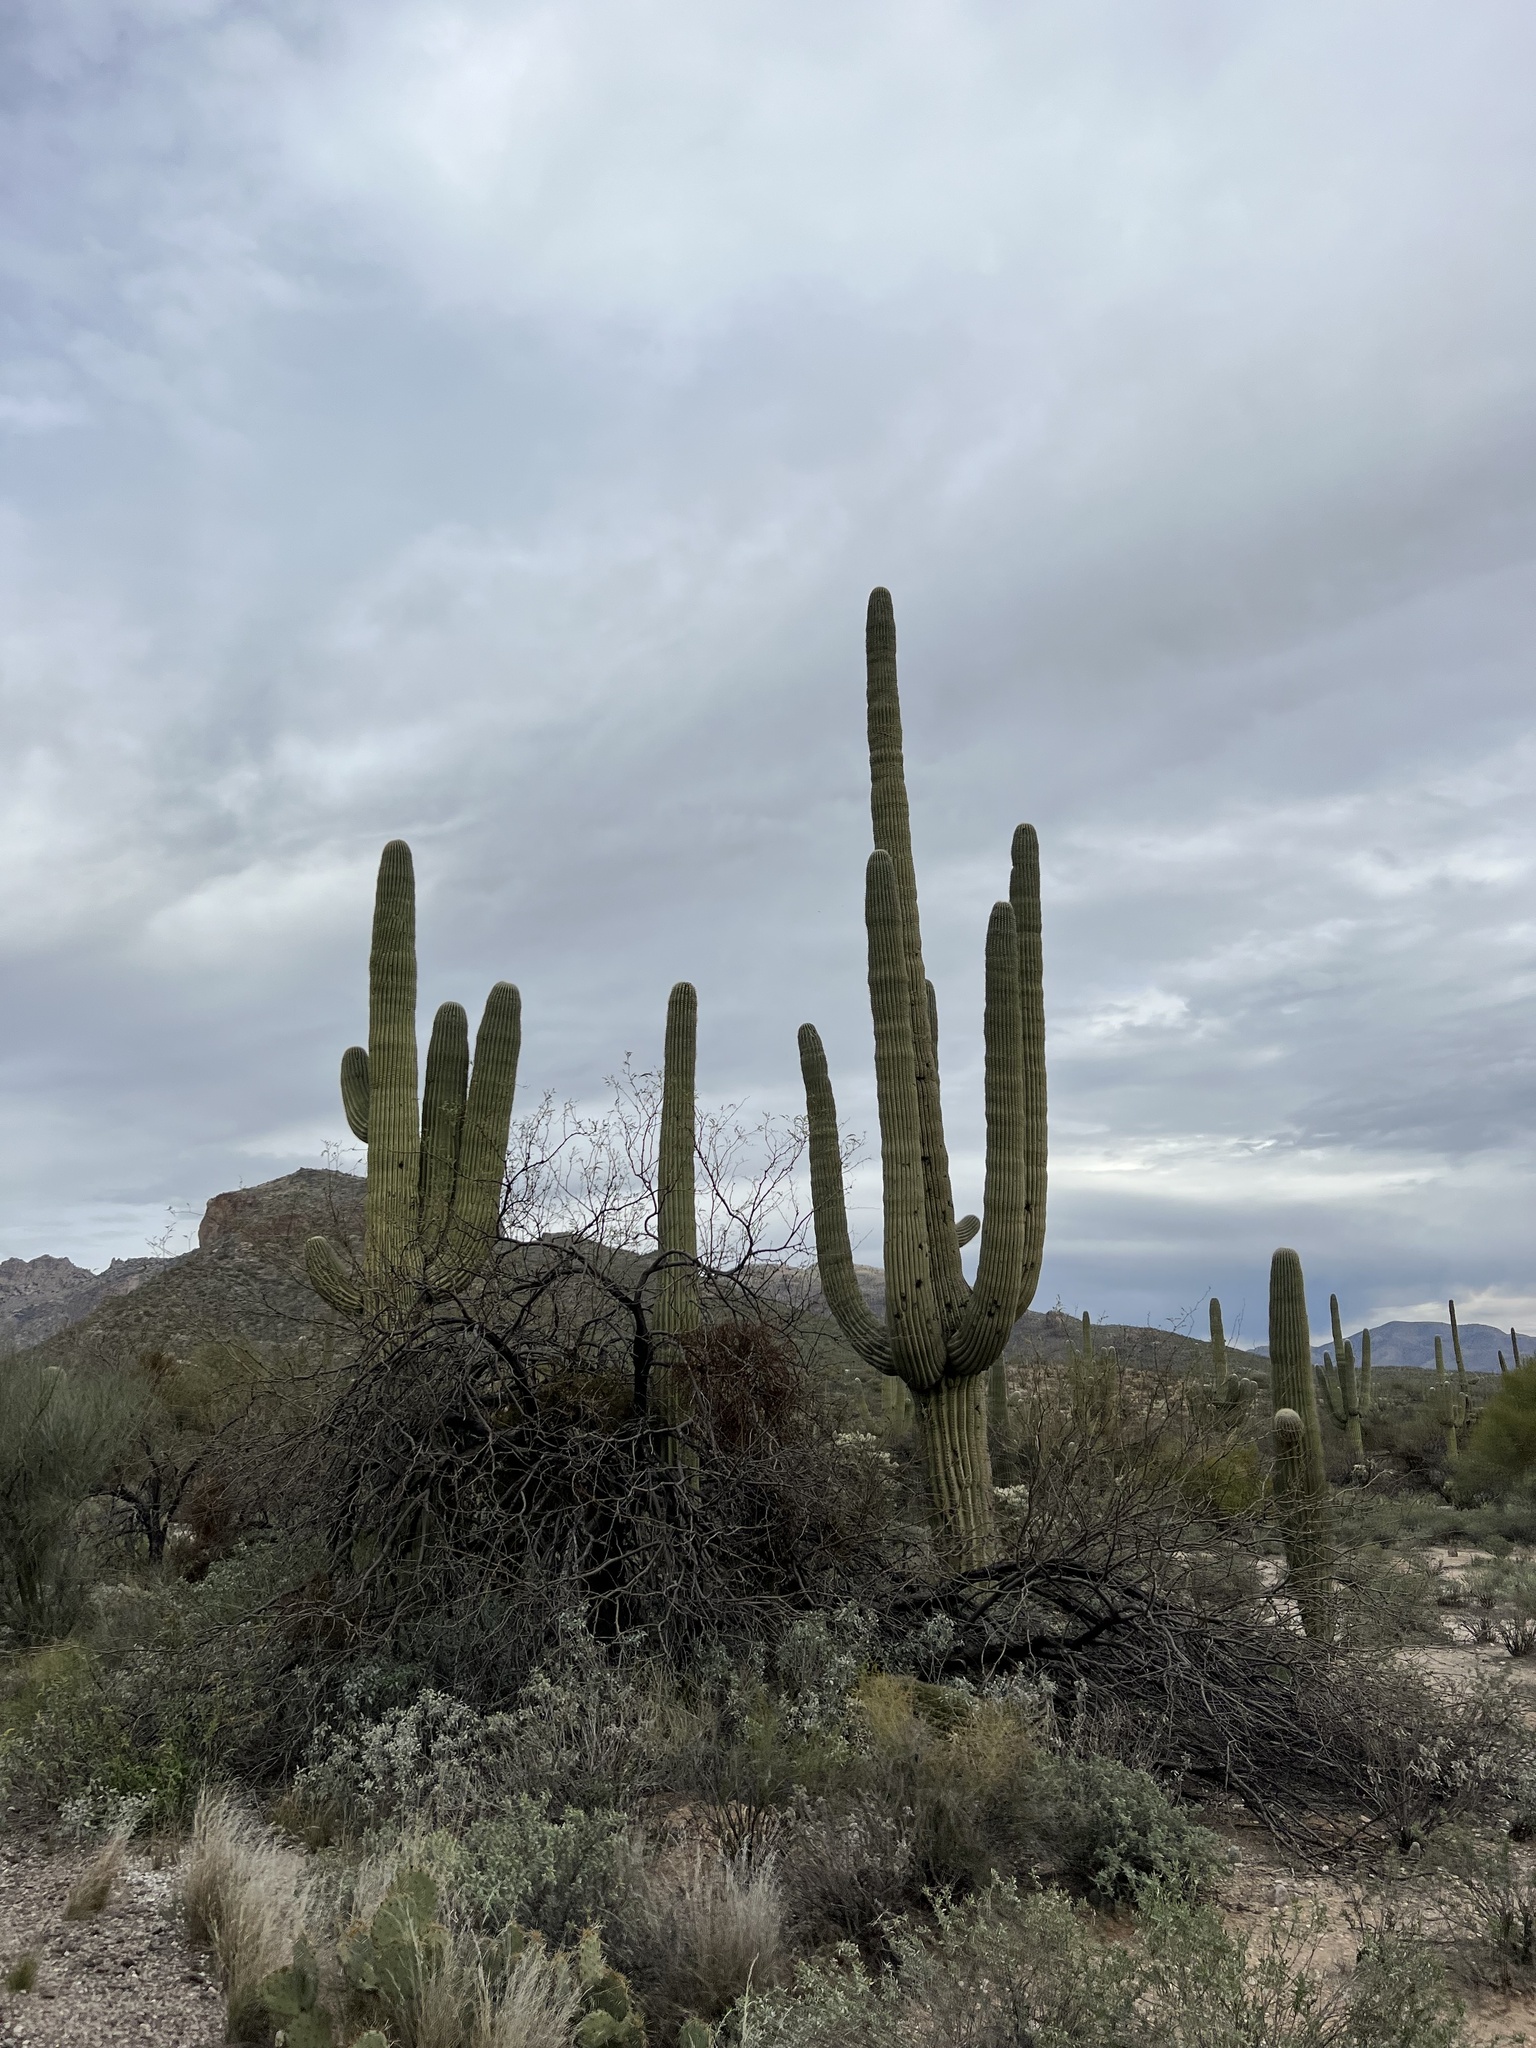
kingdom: Plantae
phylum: Tracheophyta
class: Magnoliopsida
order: Caryophyllales
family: Cactaceae
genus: Carnegiea
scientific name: Carnegiea gigantea
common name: Saguaro
